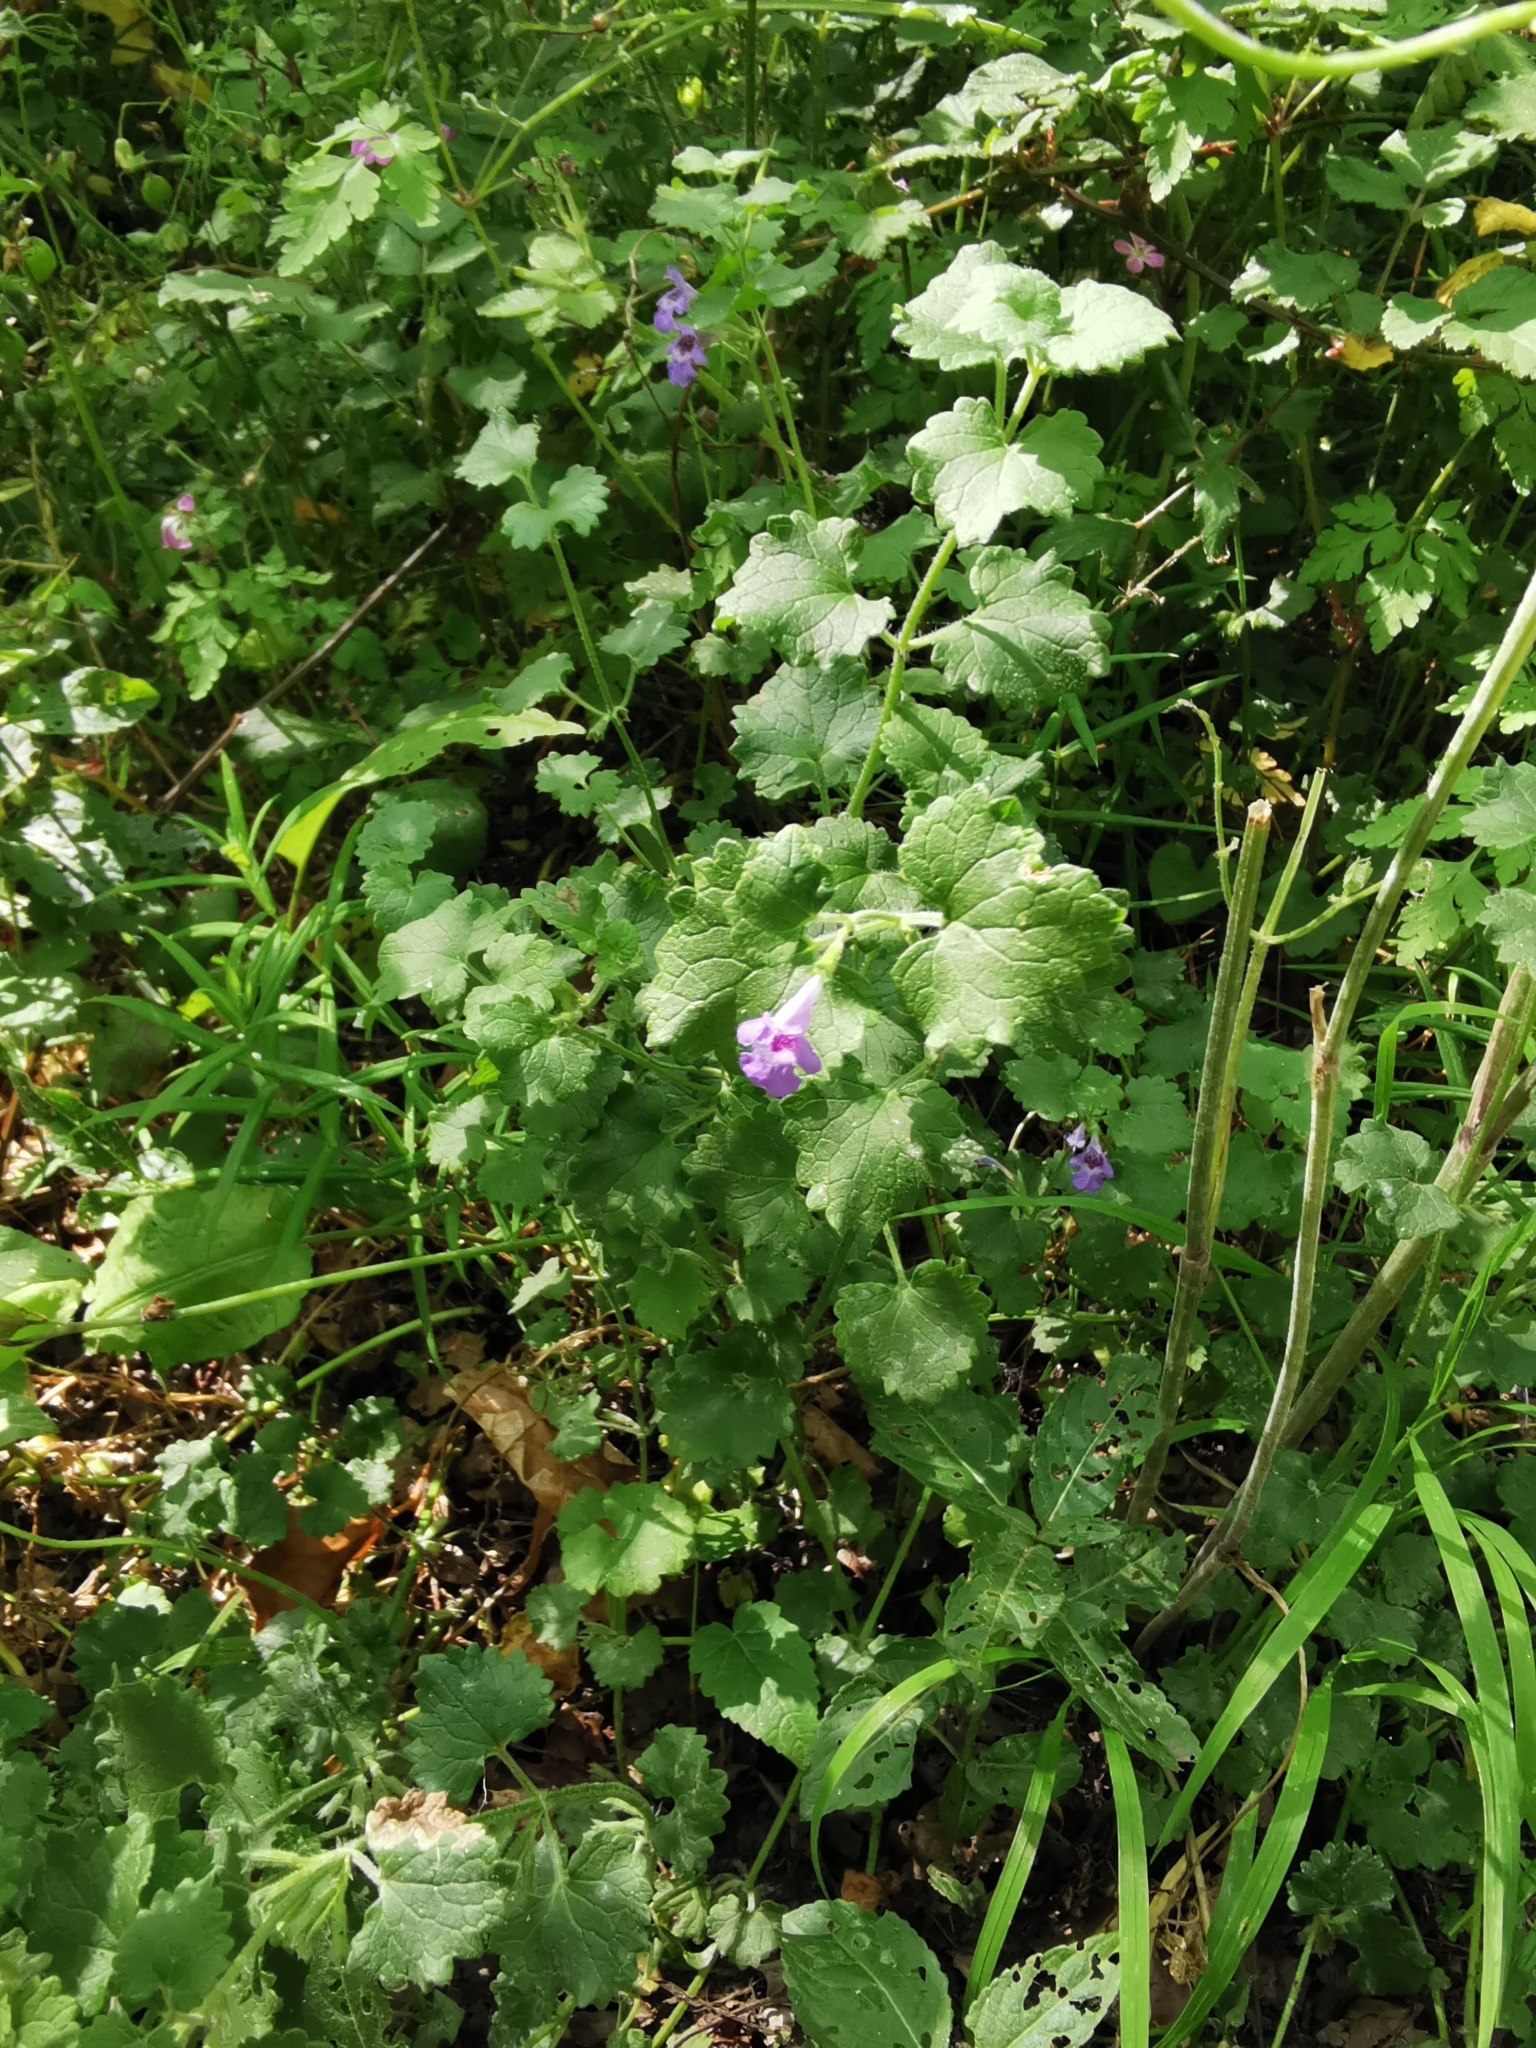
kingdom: Plantae
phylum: Tracheophyta
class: Magnoliopsida
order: Lamiales
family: Lamiaceae
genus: Glechoma
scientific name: Glechoma hederacea
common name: Ground ivy
